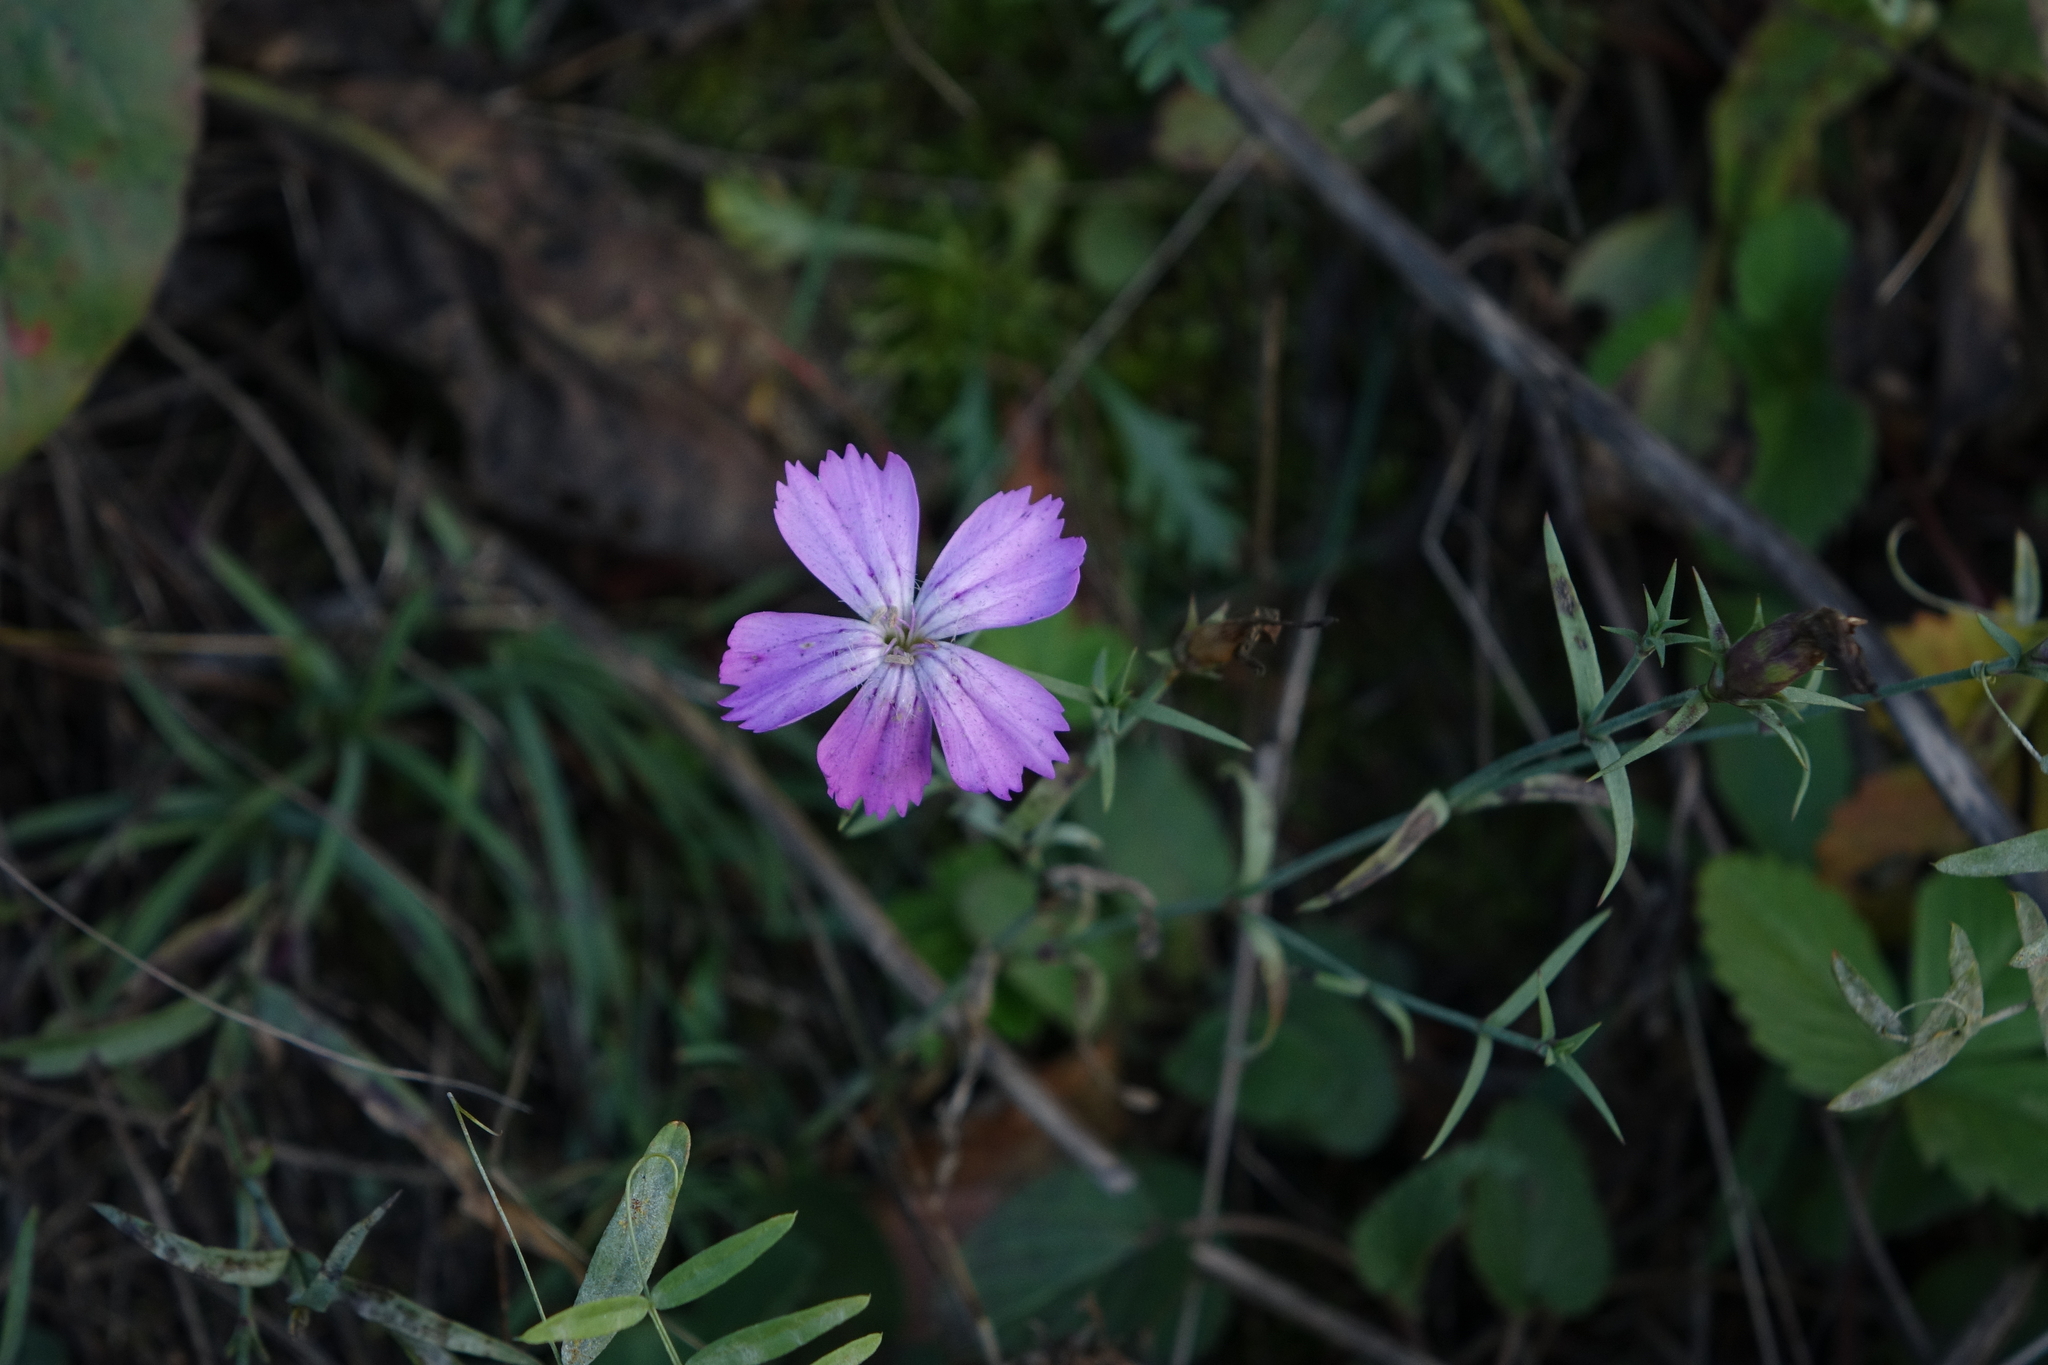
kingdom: Plantae
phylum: Tracheophyta
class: Magnoliopsida
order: Caryophyllales
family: Caryophyllaceae
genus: Dianthus
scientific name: Dianthus chinensis
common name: Rainbow pink
